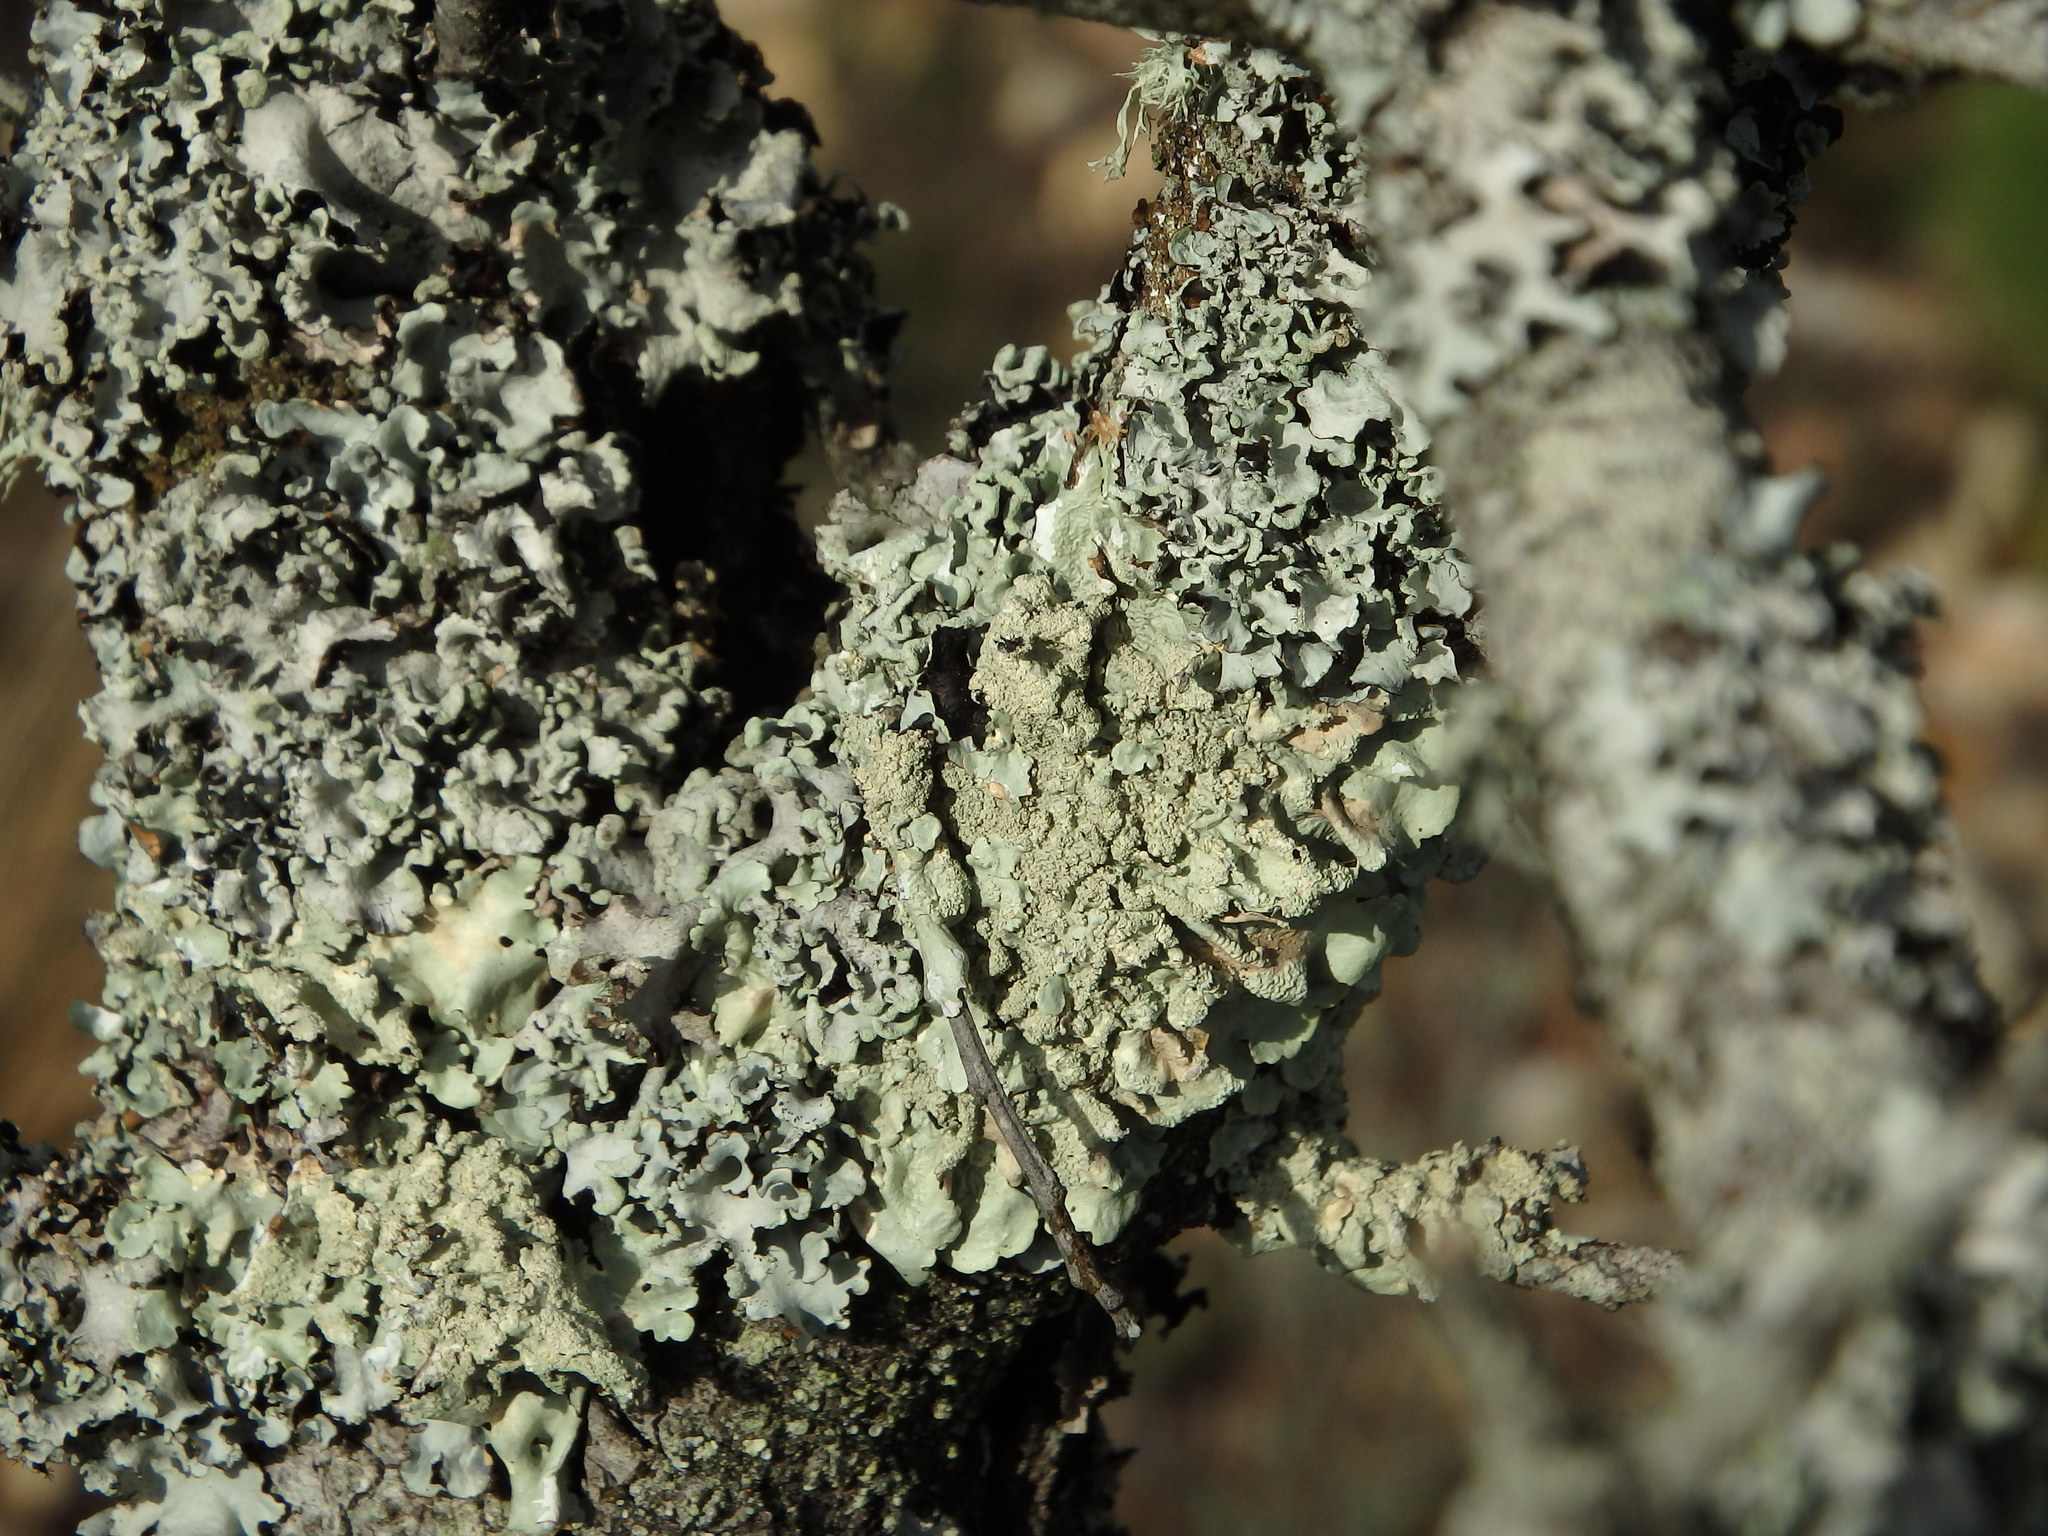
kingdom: Fungi
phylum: Ascomycota
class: Lecanoromycetes
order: Lecanorales
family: Parmeliaceae
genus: Flavoparmelia
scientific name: Flavoparmelia caperata
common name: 40-mile per hour lichen
